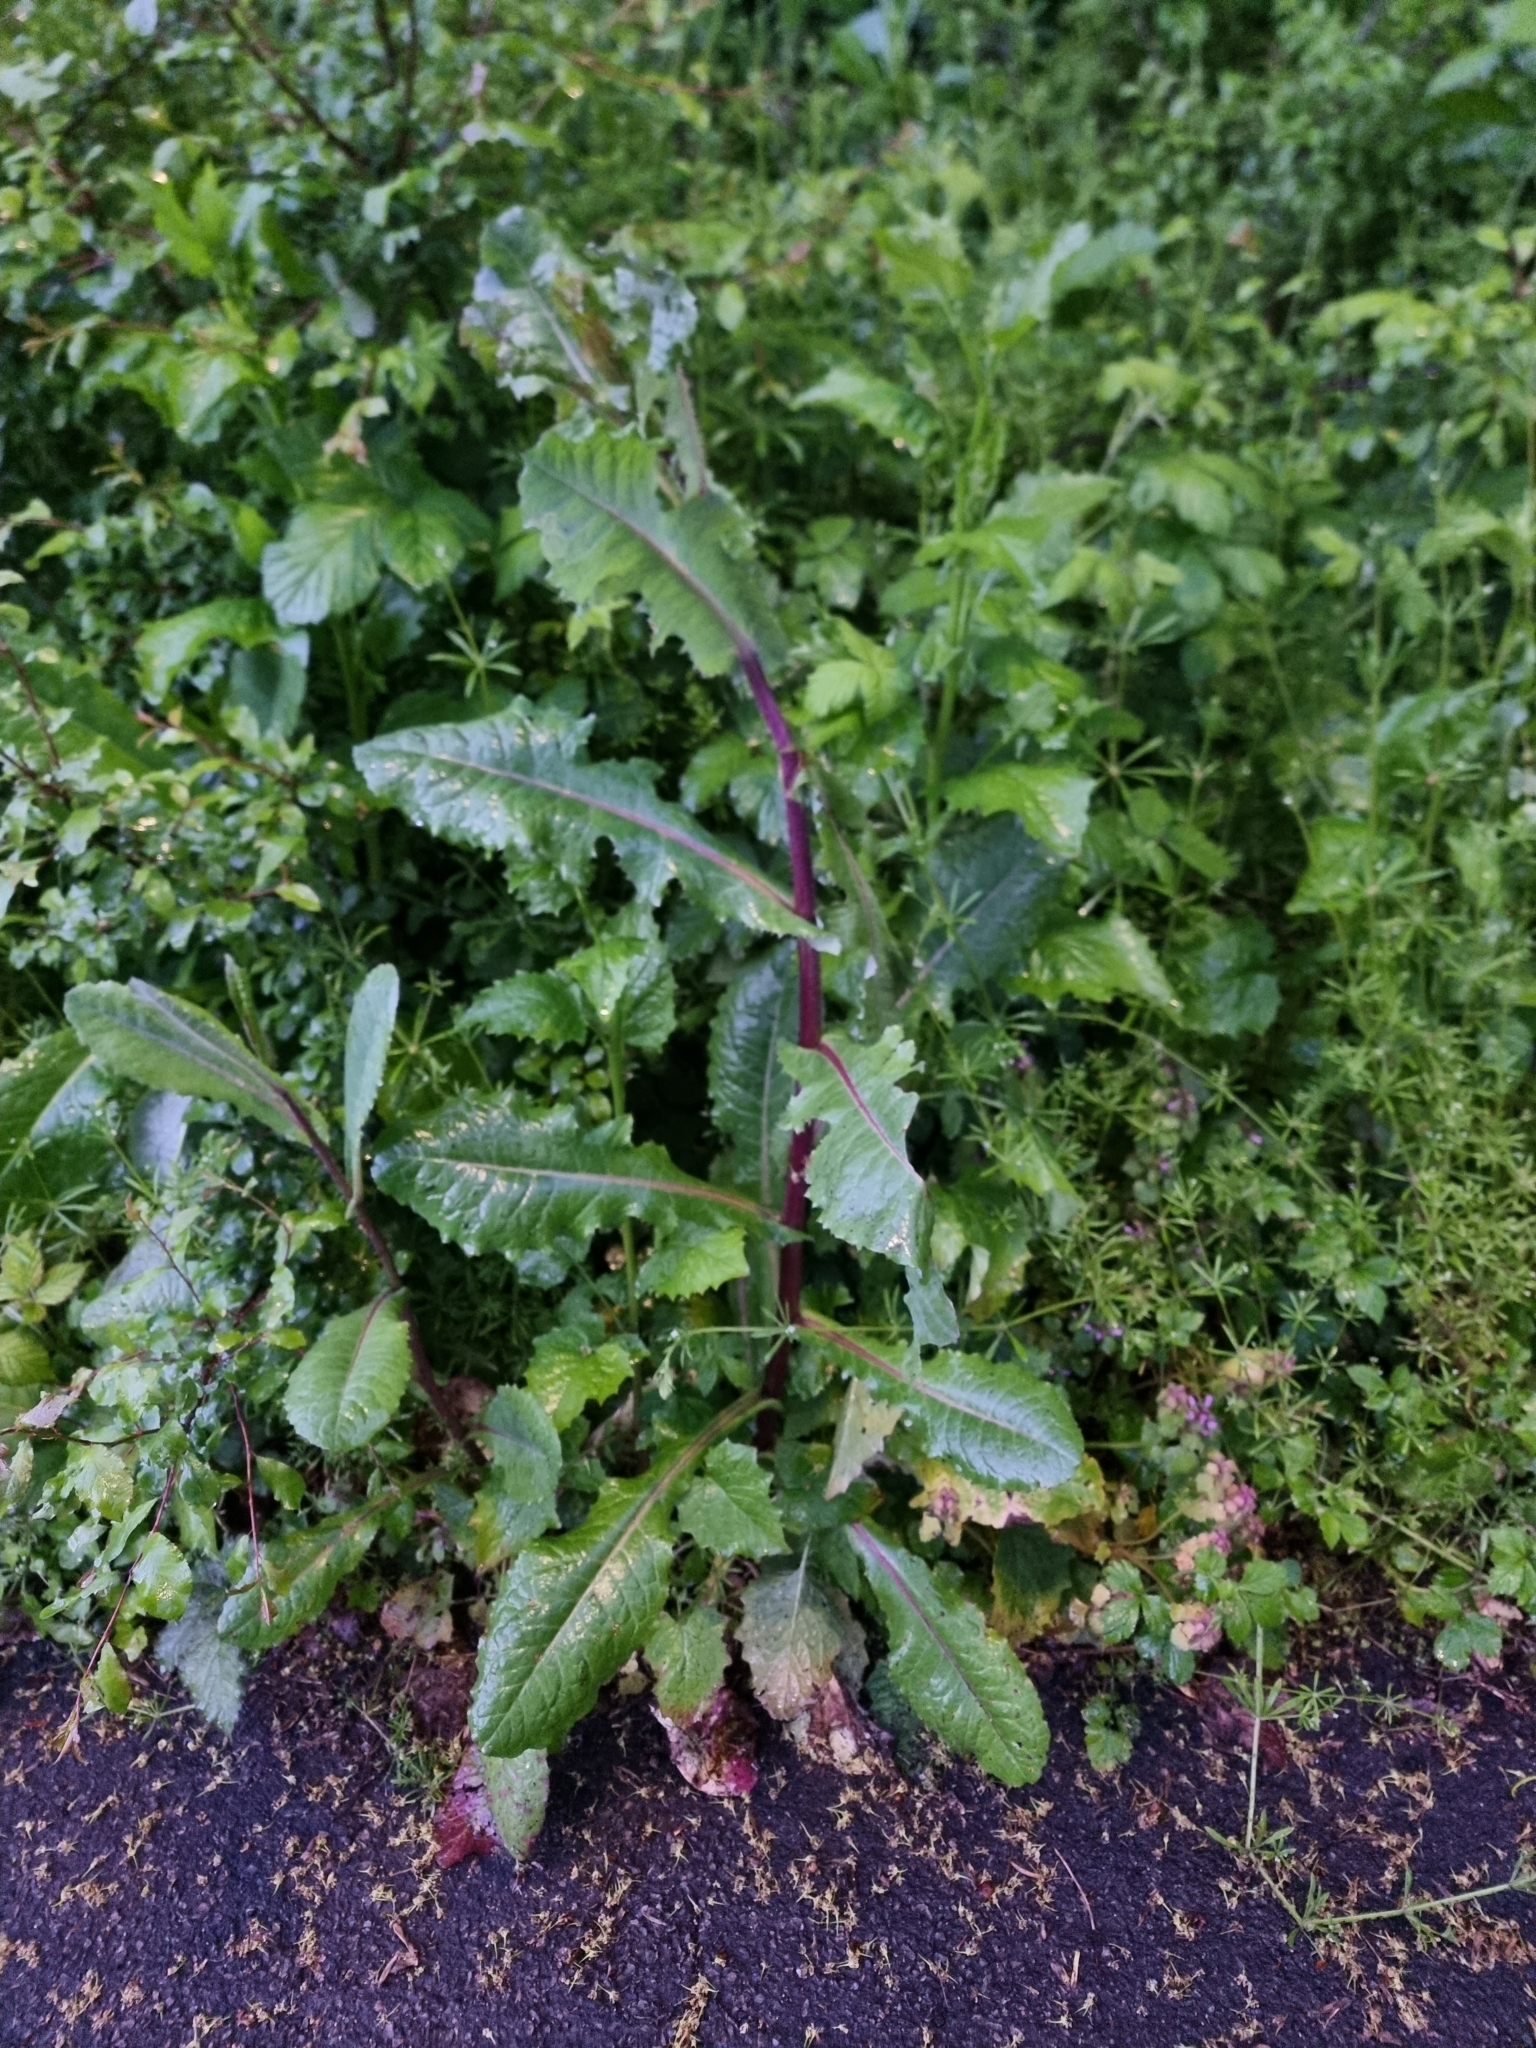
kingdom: Plantae
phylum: Tracheophyta
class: Magnoliopsida
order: Asterales
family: Asteraceae
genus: Lactuca
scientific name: Lactuca virosa
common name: Great lettuce
